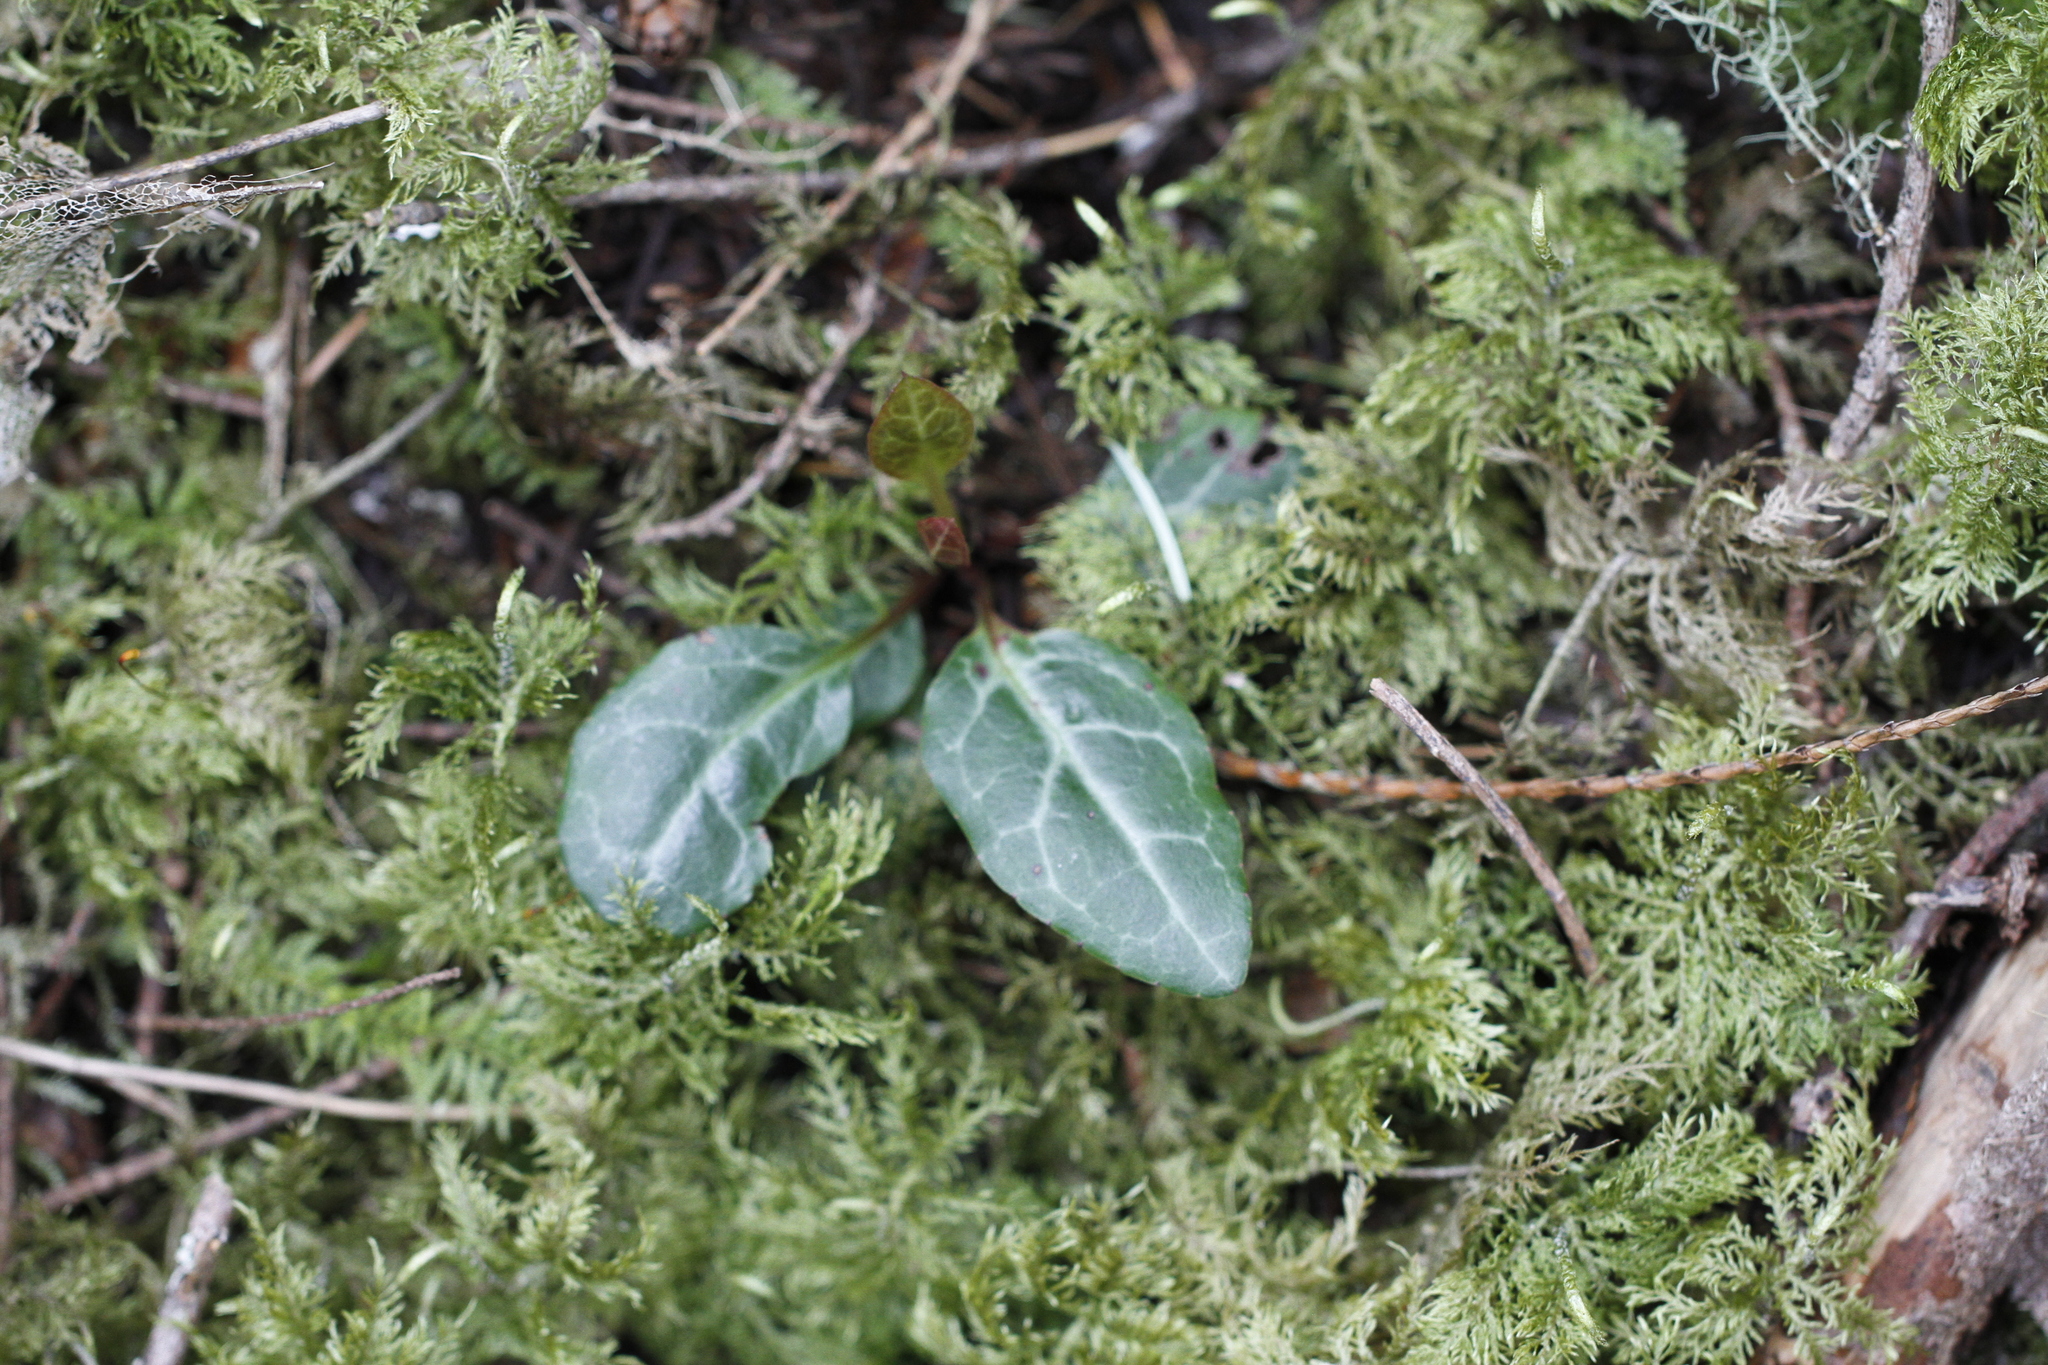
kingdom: Plantae
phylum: Tracheophyta
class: Magnoliopsida
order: Ericales
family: Ericaceae
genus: Pyrola
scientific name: Pyrola picta
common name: White-vein wintergreen
